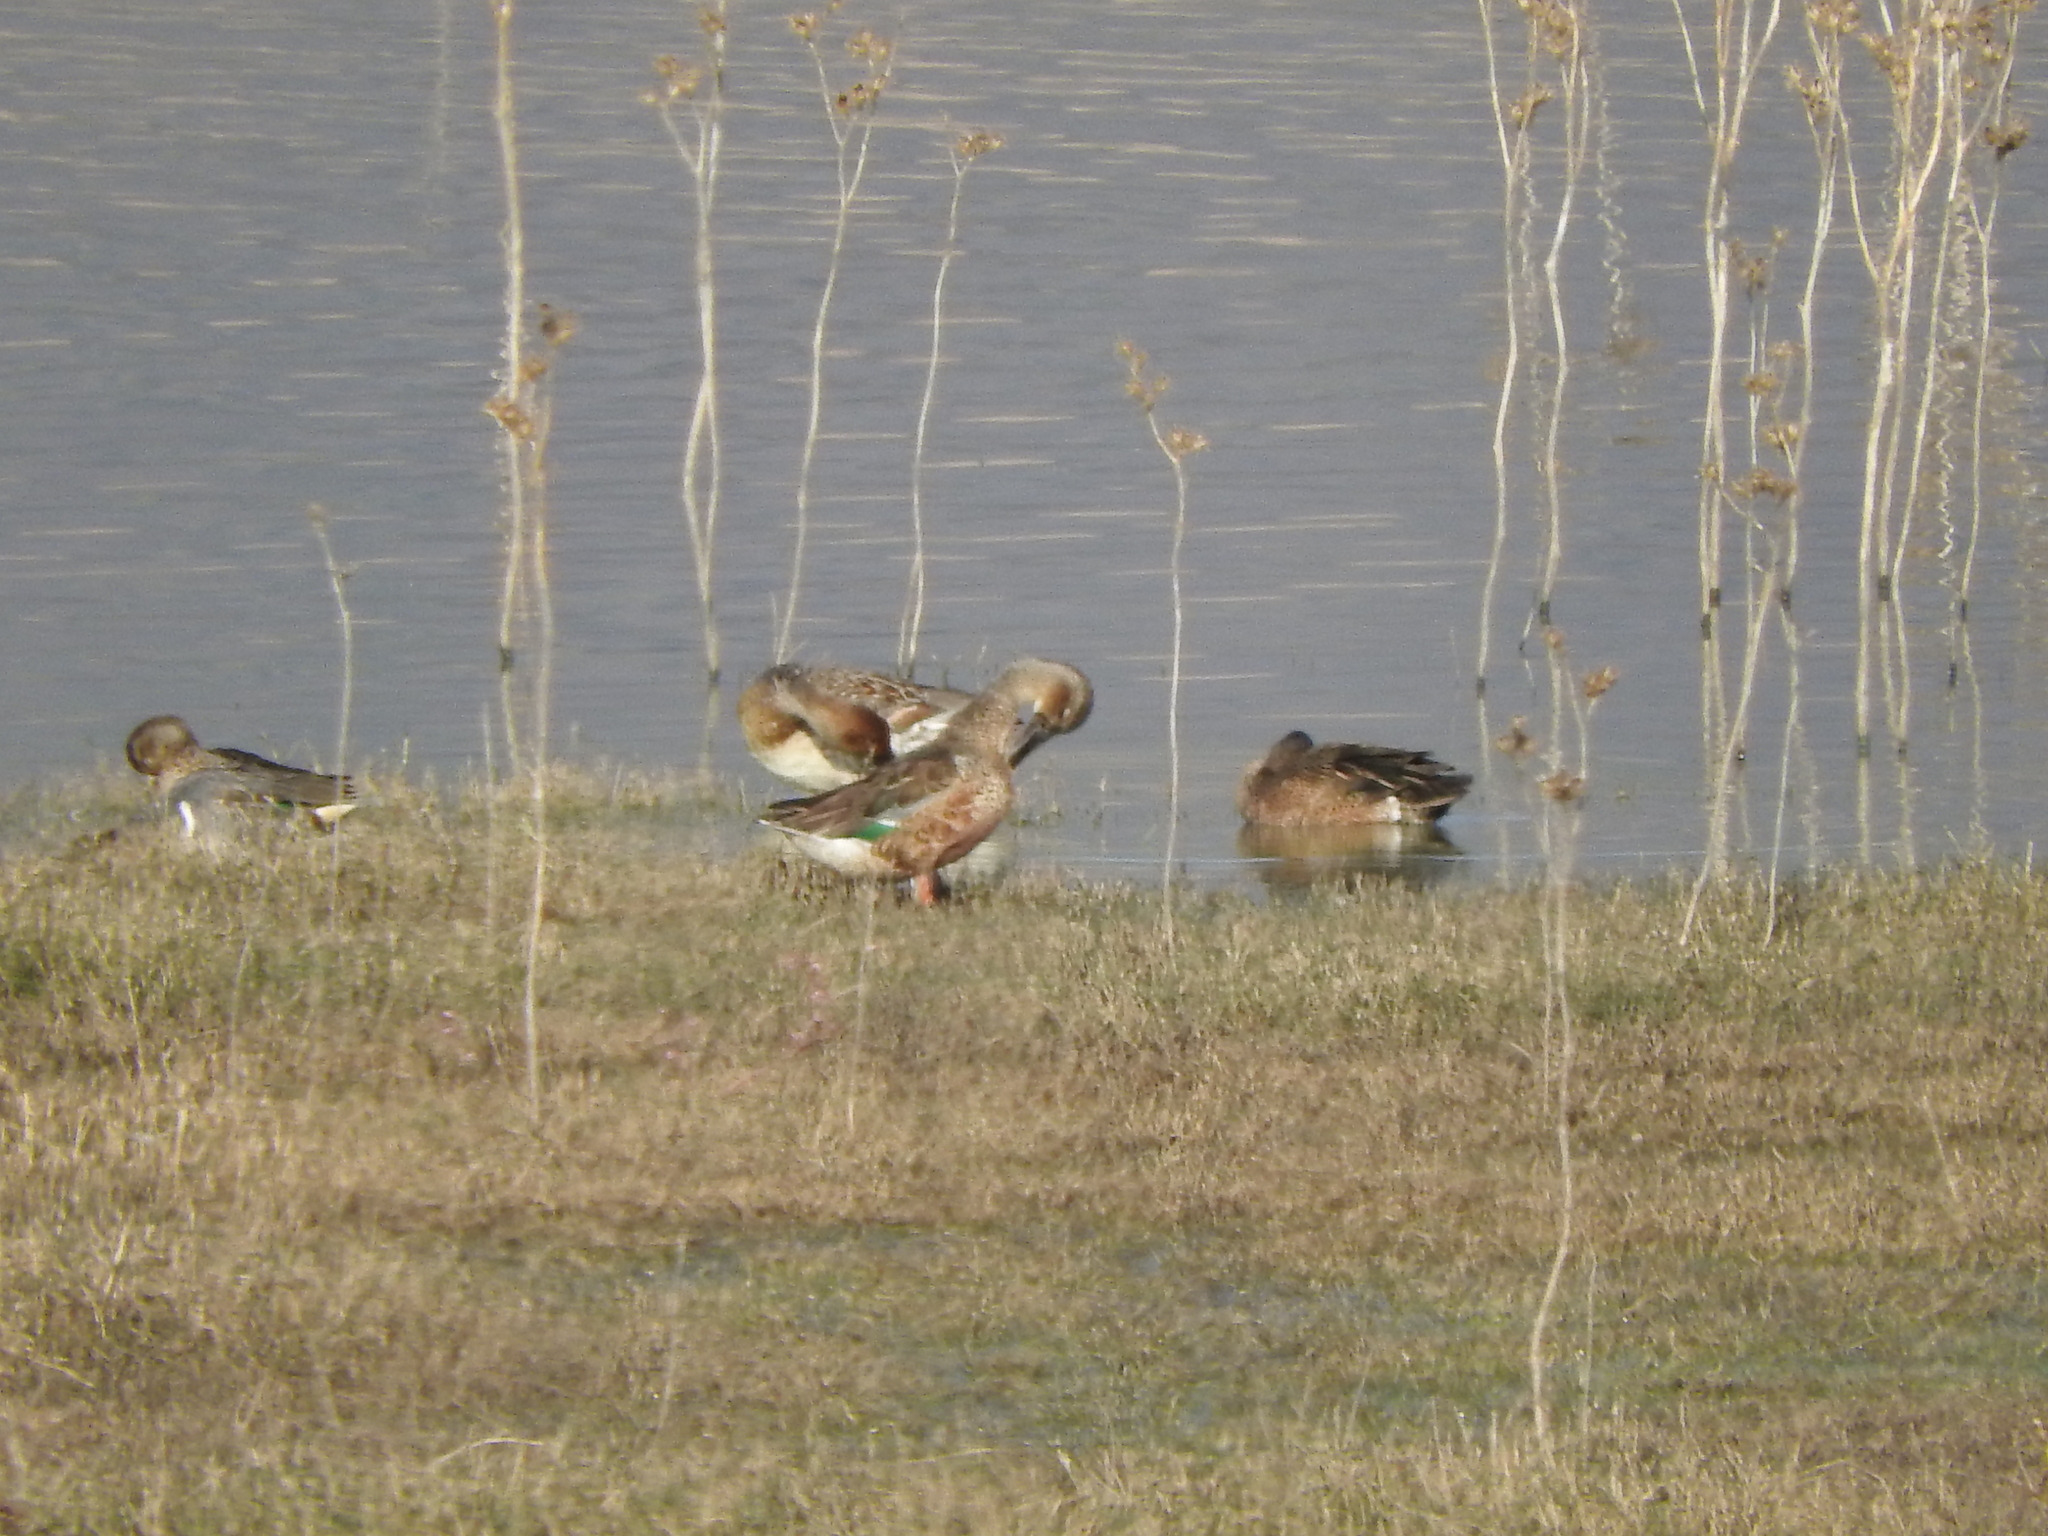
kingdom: Animalia
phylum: Chordata
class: Aves
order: Anseriformes
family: Anatidae
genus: Anas
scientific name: Anas crecca
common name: Eurasian teal
